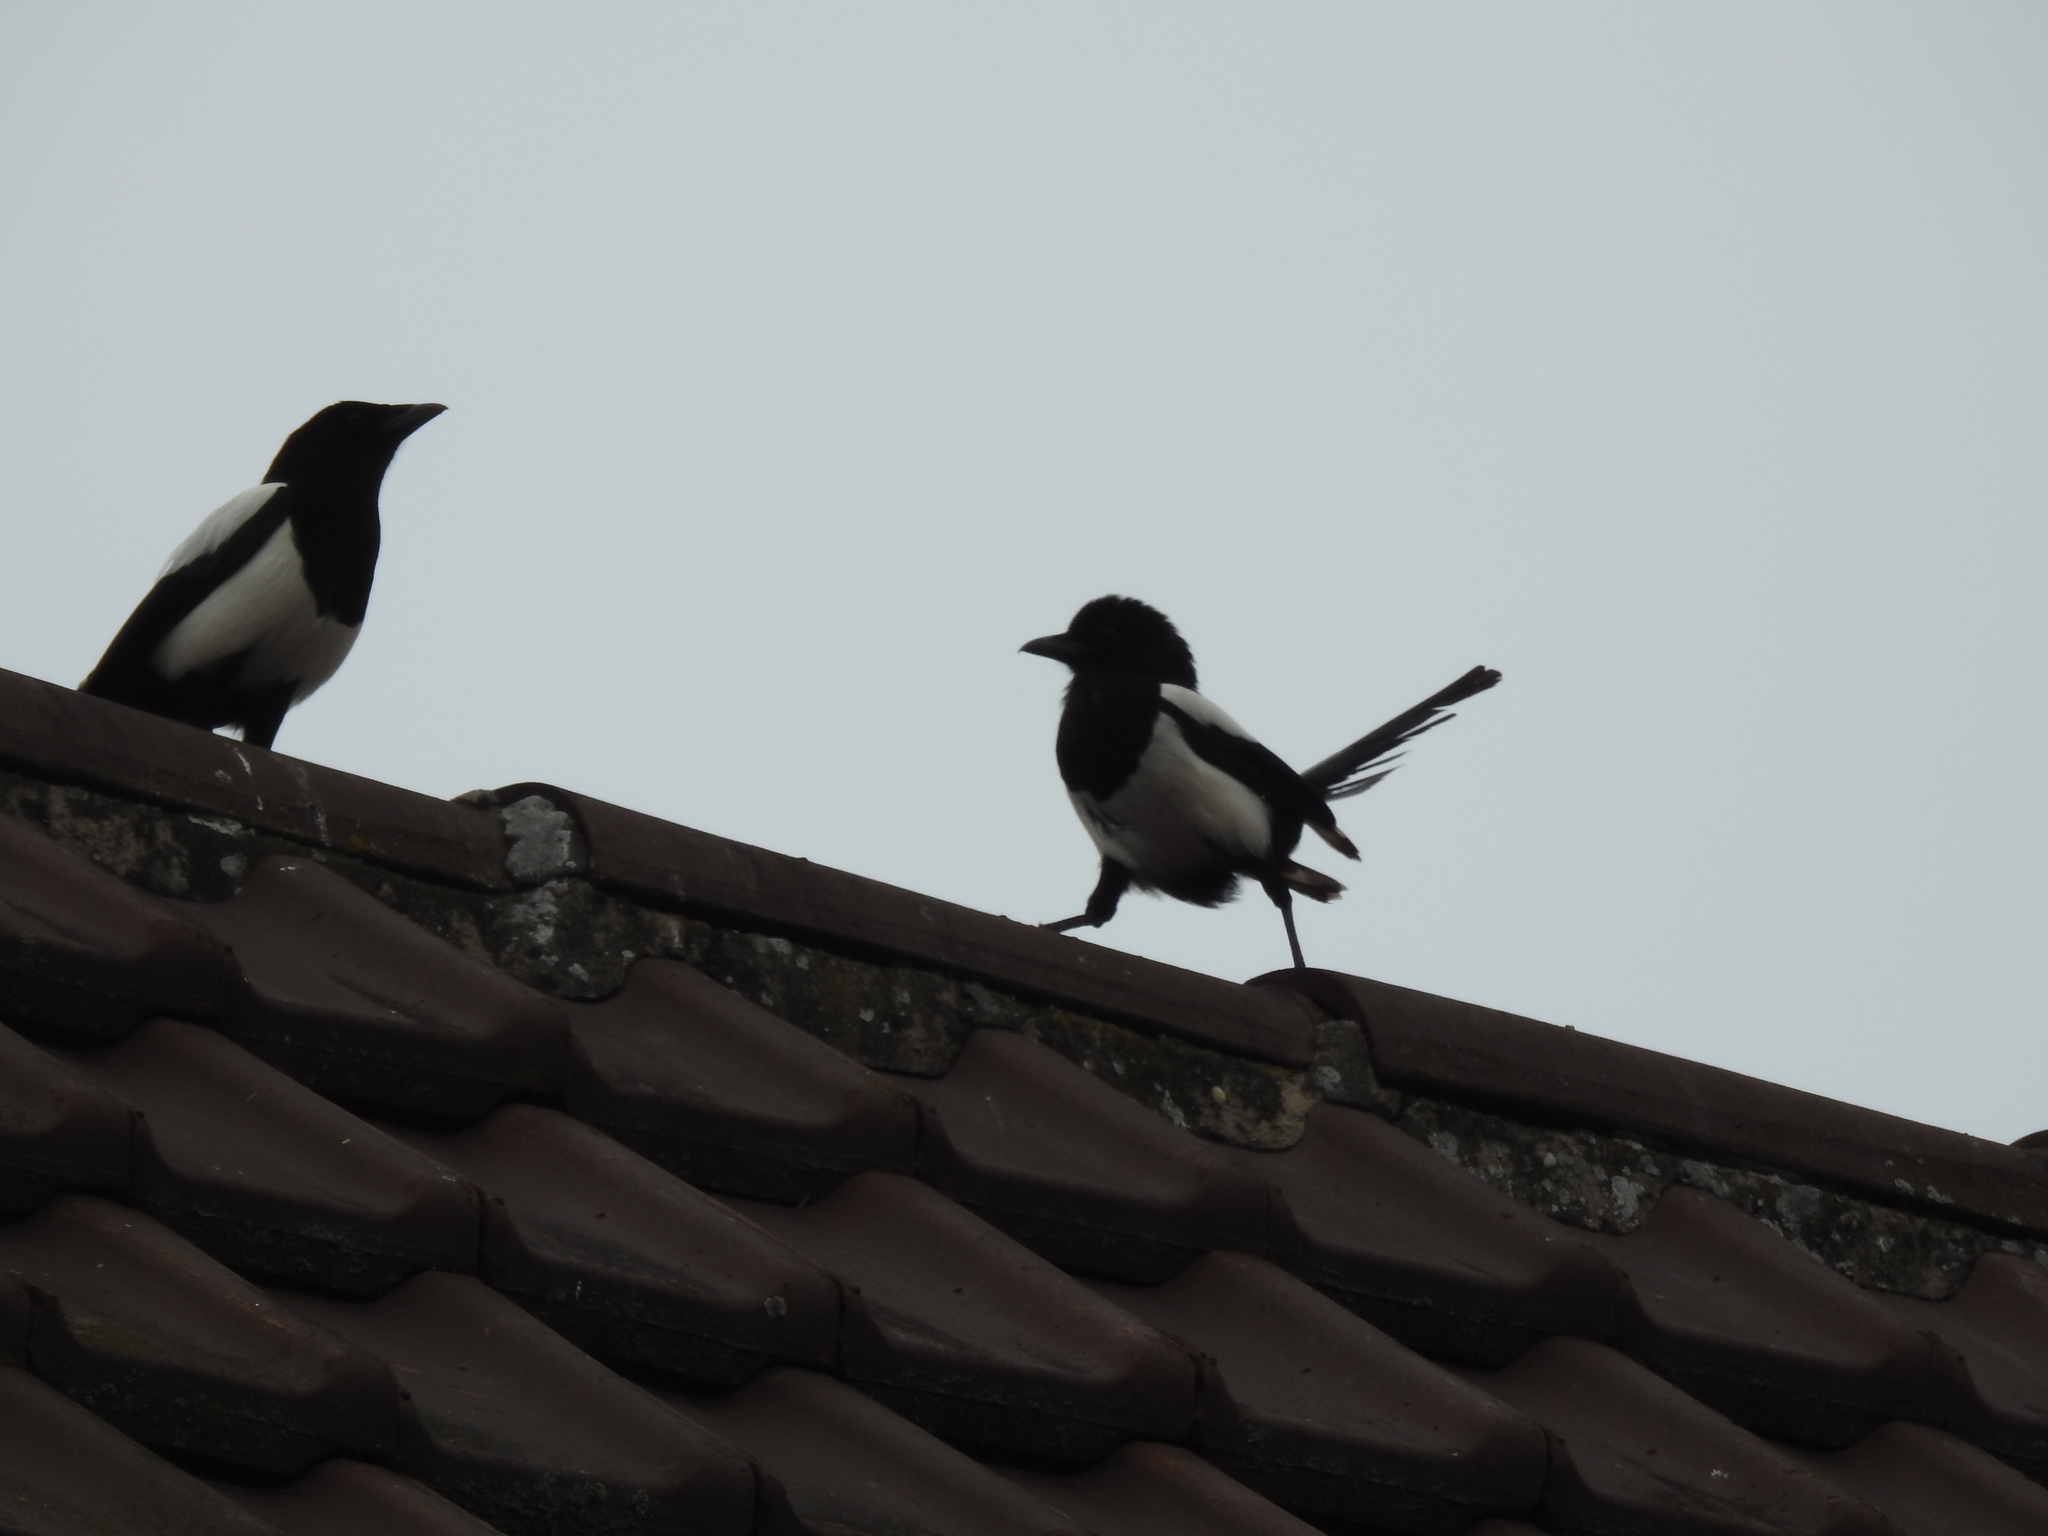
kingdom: Animalia
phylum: Chordata
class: Aves
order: Passeriformes
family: Corvidae
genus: Pica
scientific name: Pica pica
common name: Eurasian magpie
